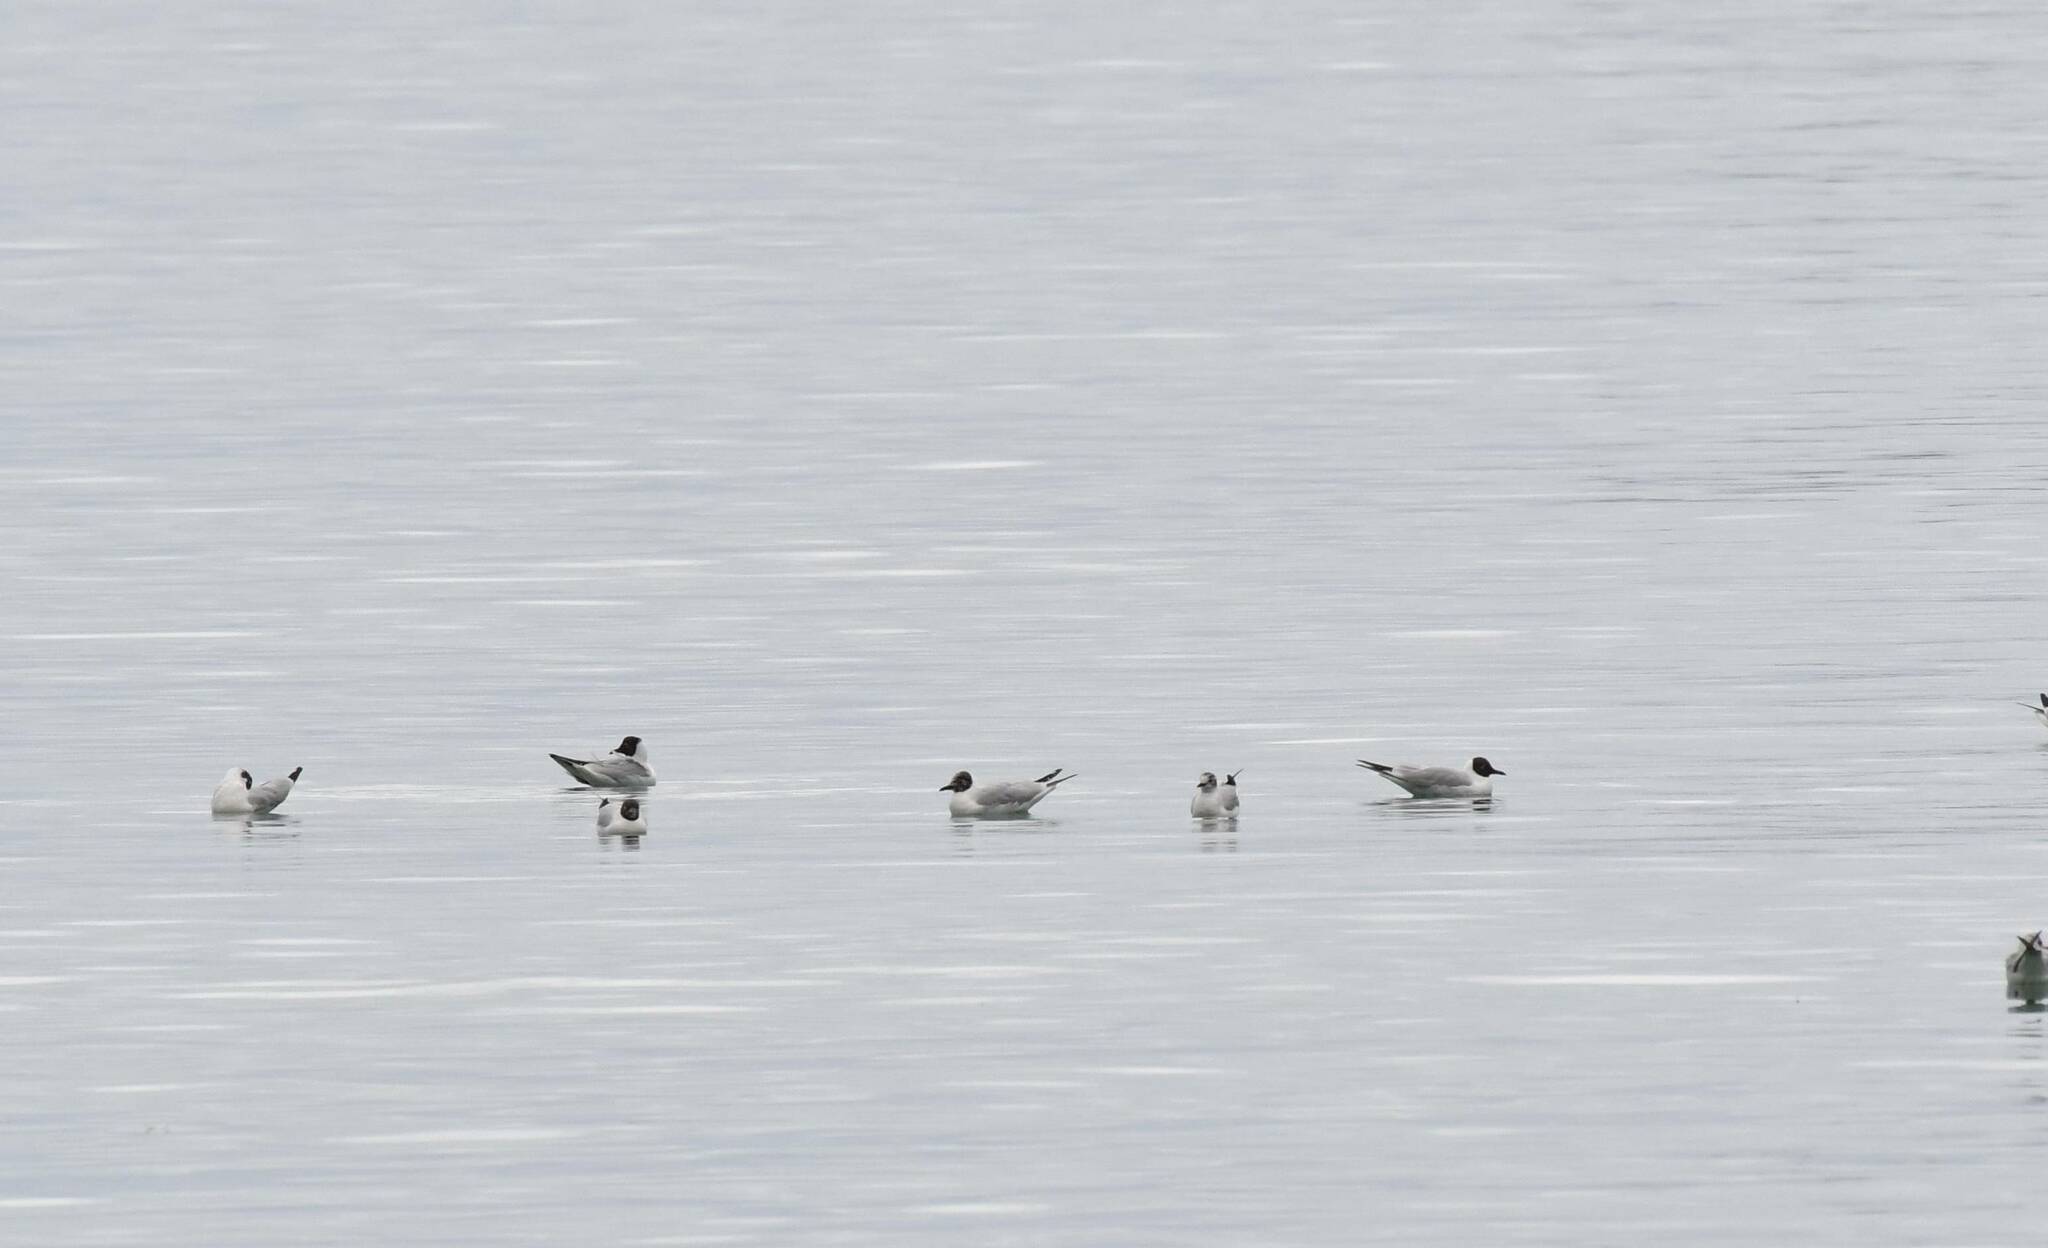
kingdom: Animalia
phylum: Chordata
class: Aves
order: Charadriiformes
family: Laridae
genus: Chroicocephalus
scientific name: Chroicocephalus ridibundus
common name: Black-headed gull
